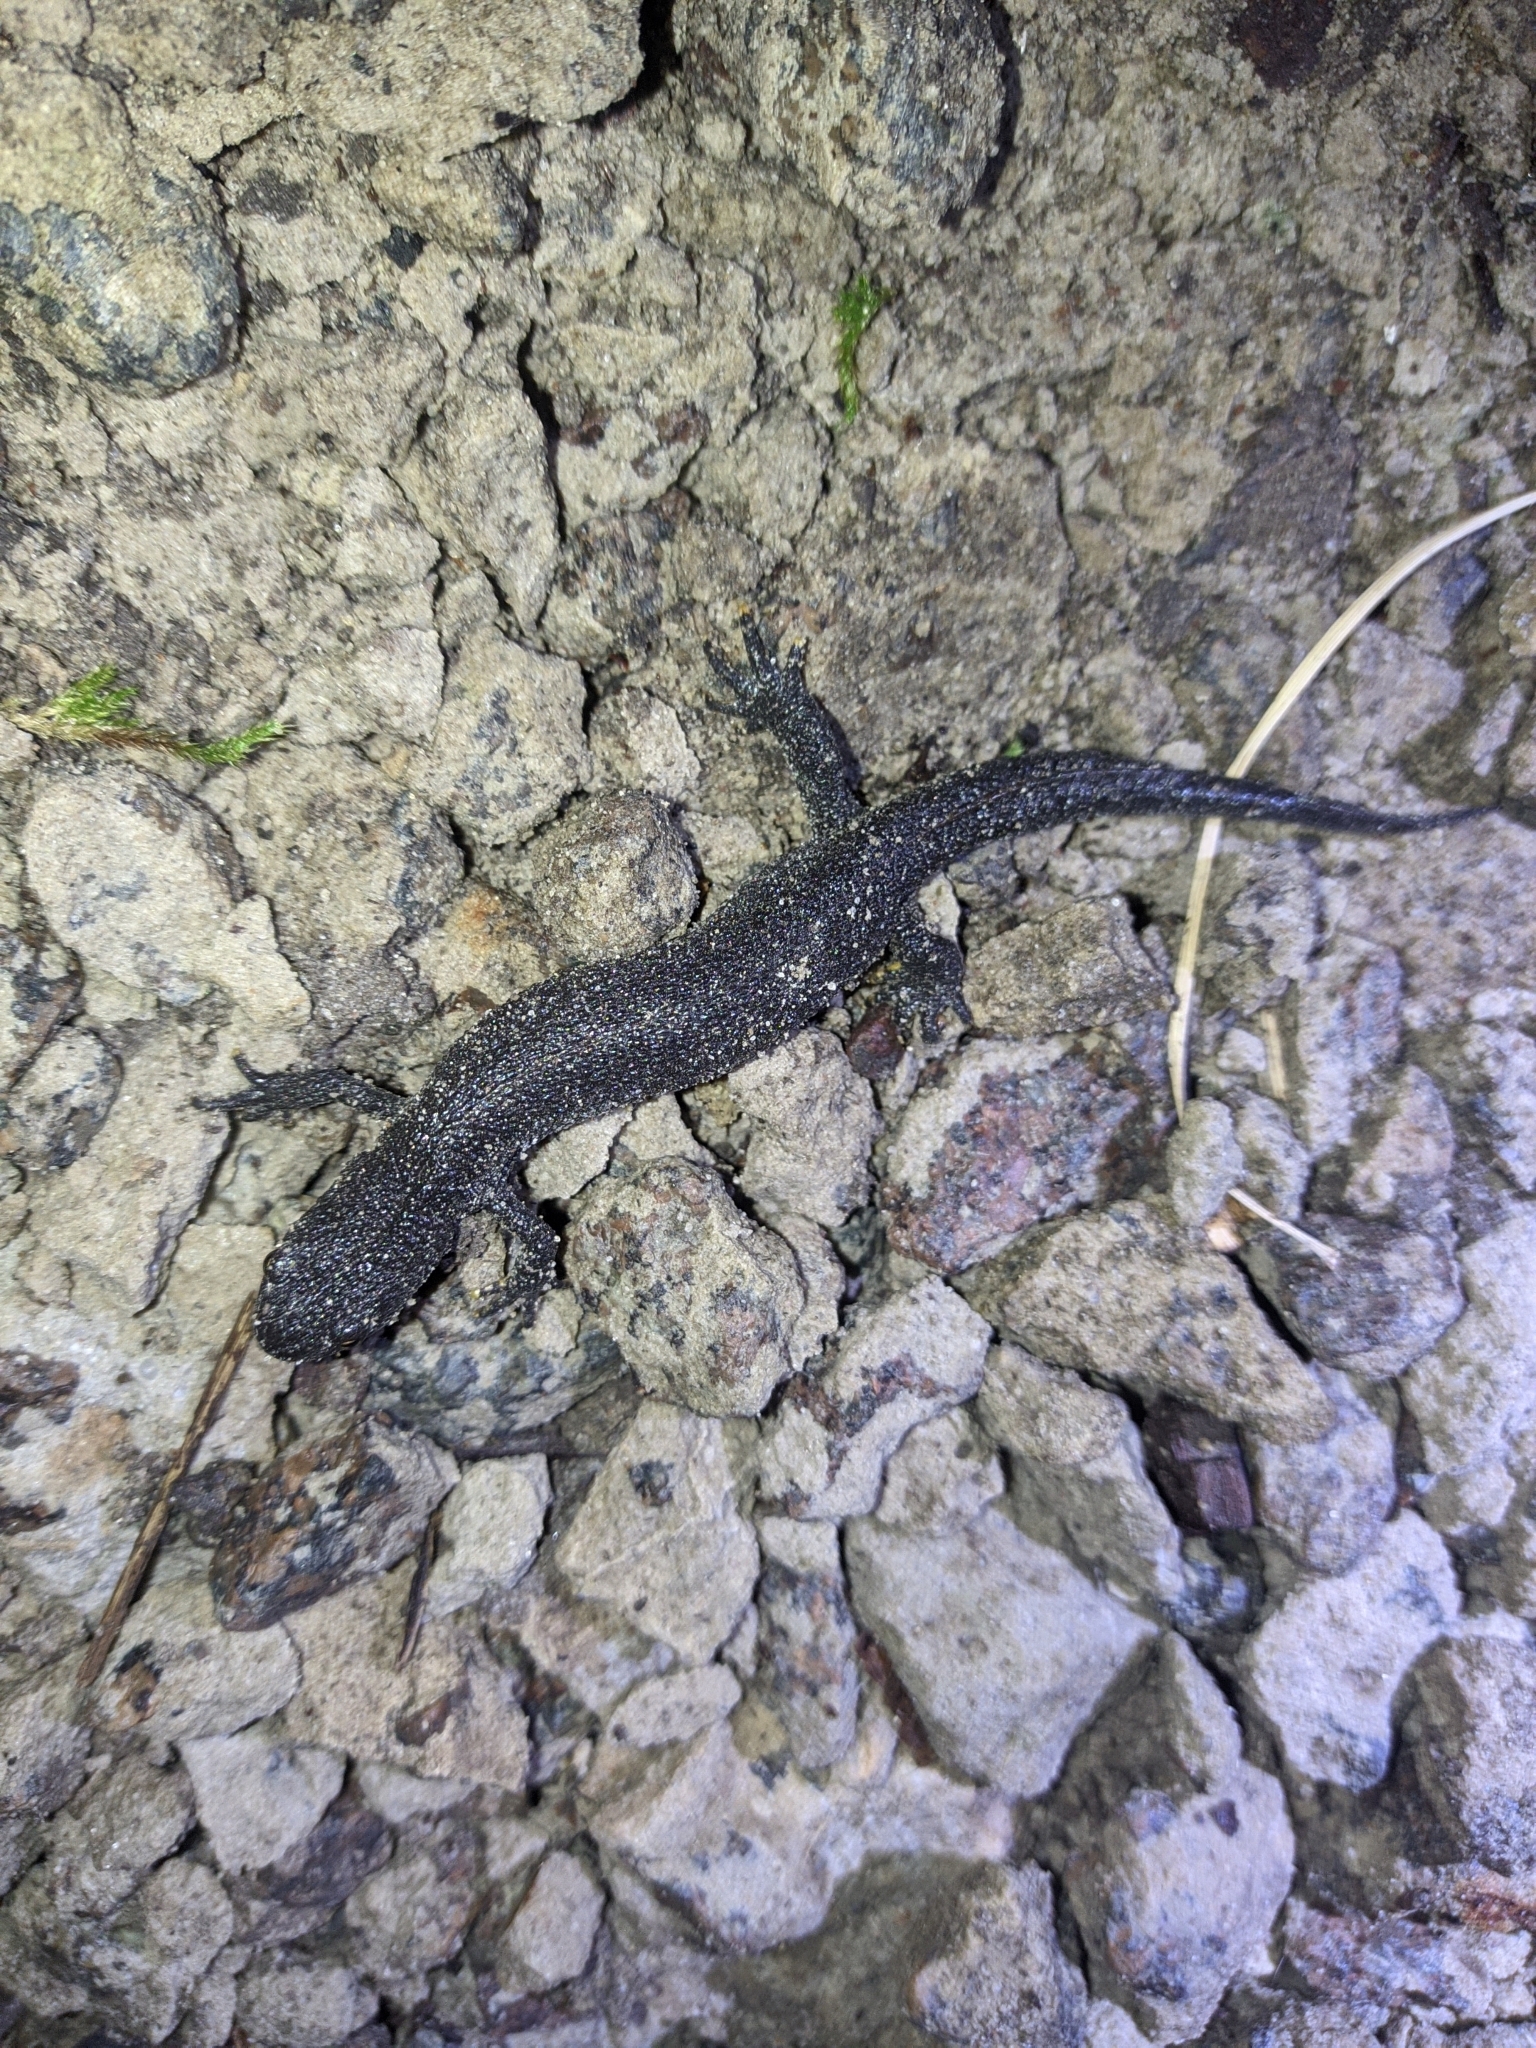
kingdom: Animalia
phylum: Chordata
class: Amphibia
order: Caudata
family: Salamandridae
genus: Triturus
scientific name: Triturus cristatus
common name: Crested newt
